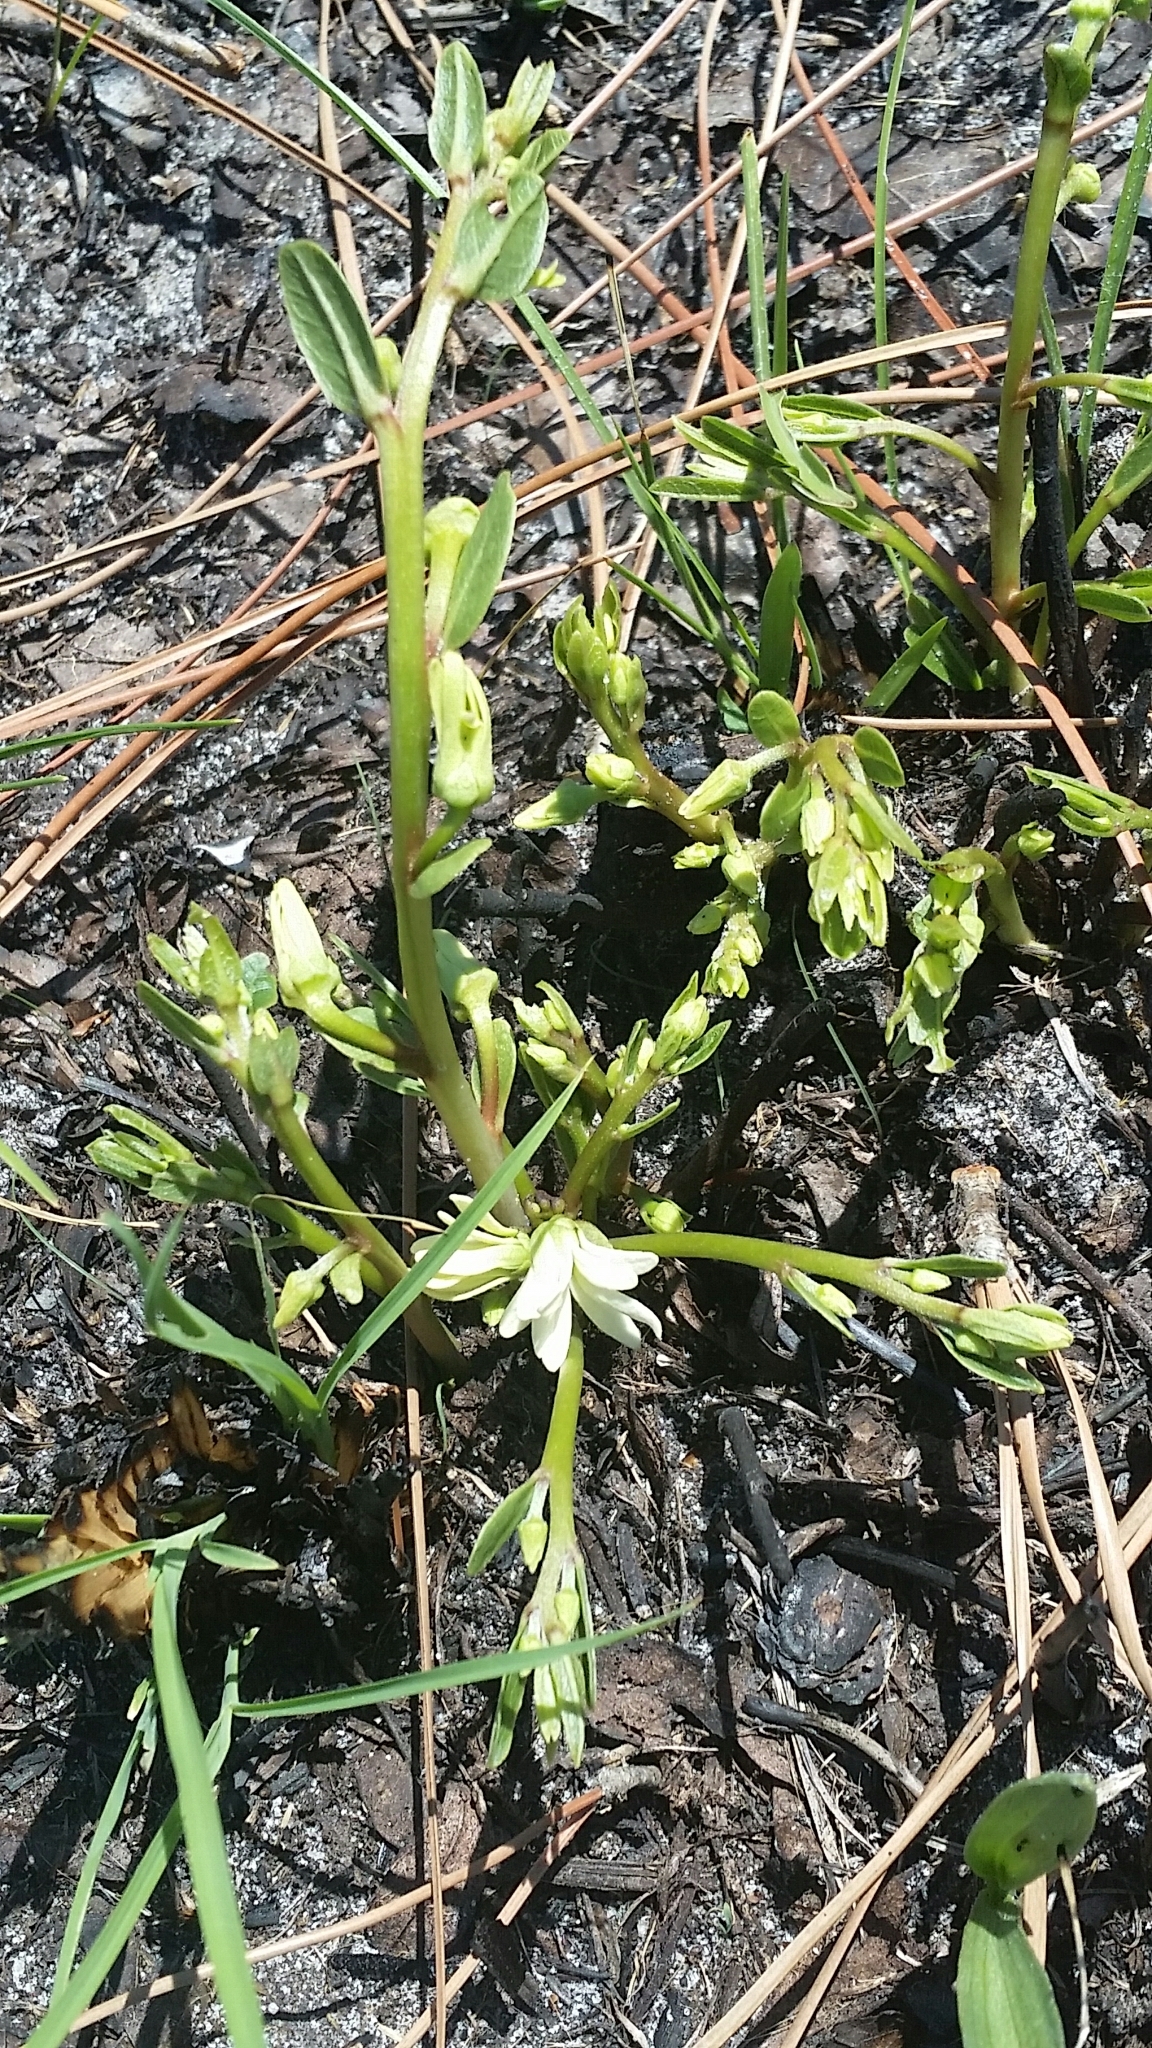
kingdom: Plantae
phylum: Tracheophyta
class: Magnoliopsida
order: Magnoliales
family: Annonaceae
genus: Asimina
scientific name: Asimina pulchella
